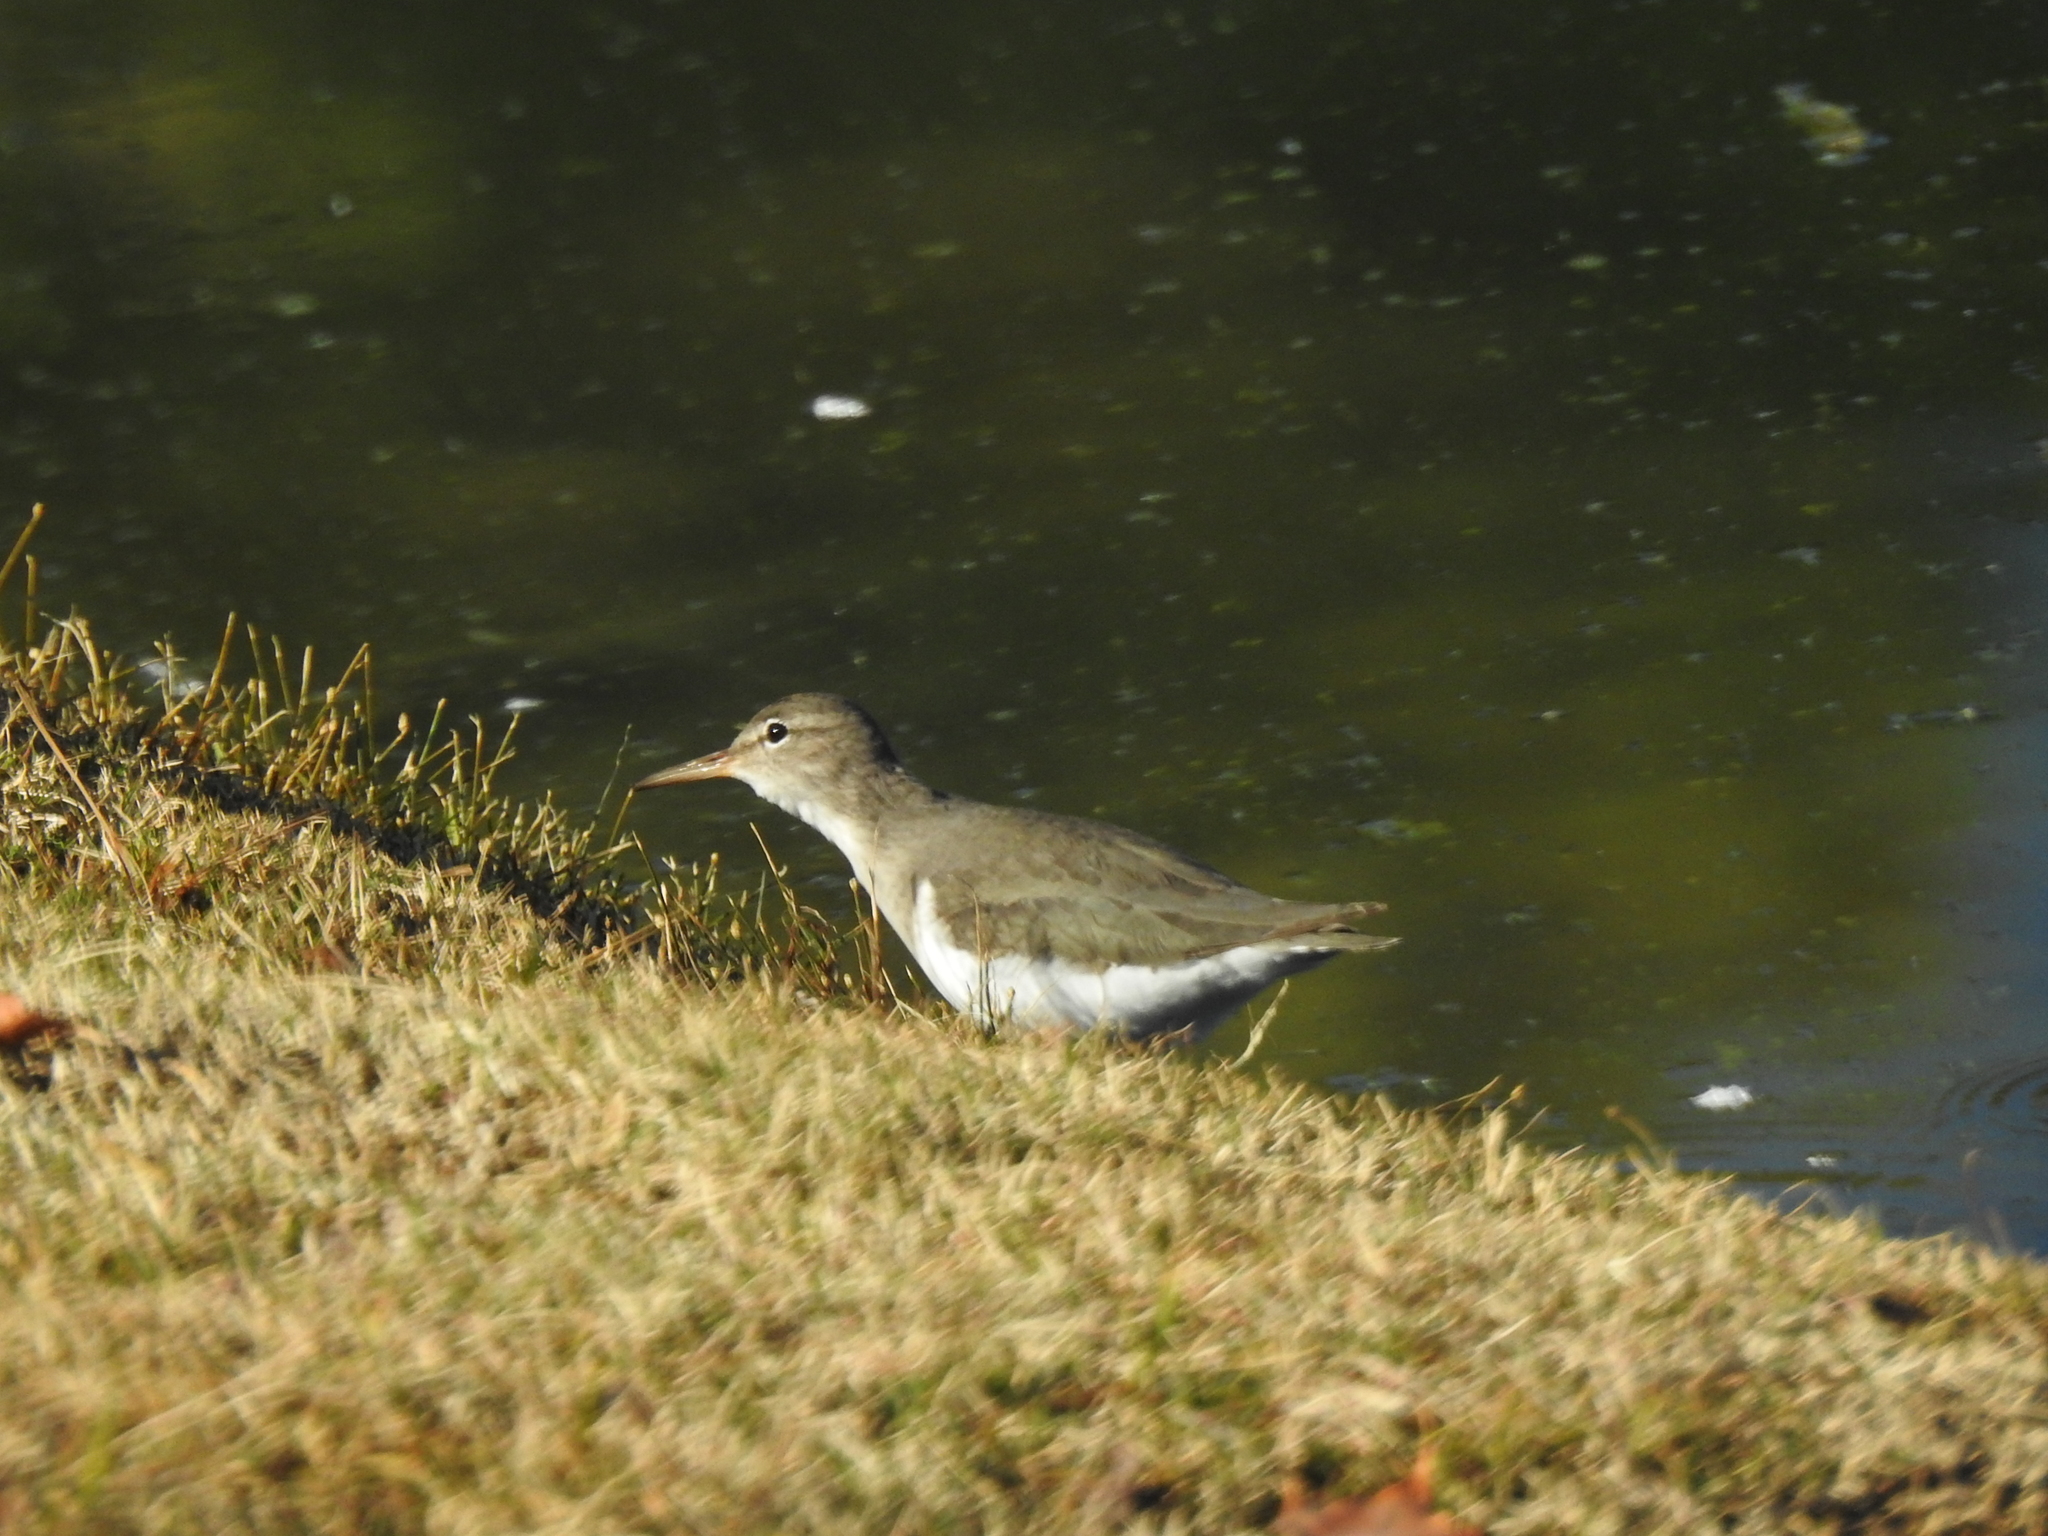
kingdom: Animalia
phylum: Chordata
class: Aves
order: Charadriiformes
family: Scolopacidae
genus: Actitis
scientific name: Actitis macularius
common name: Spotted sandpiper
